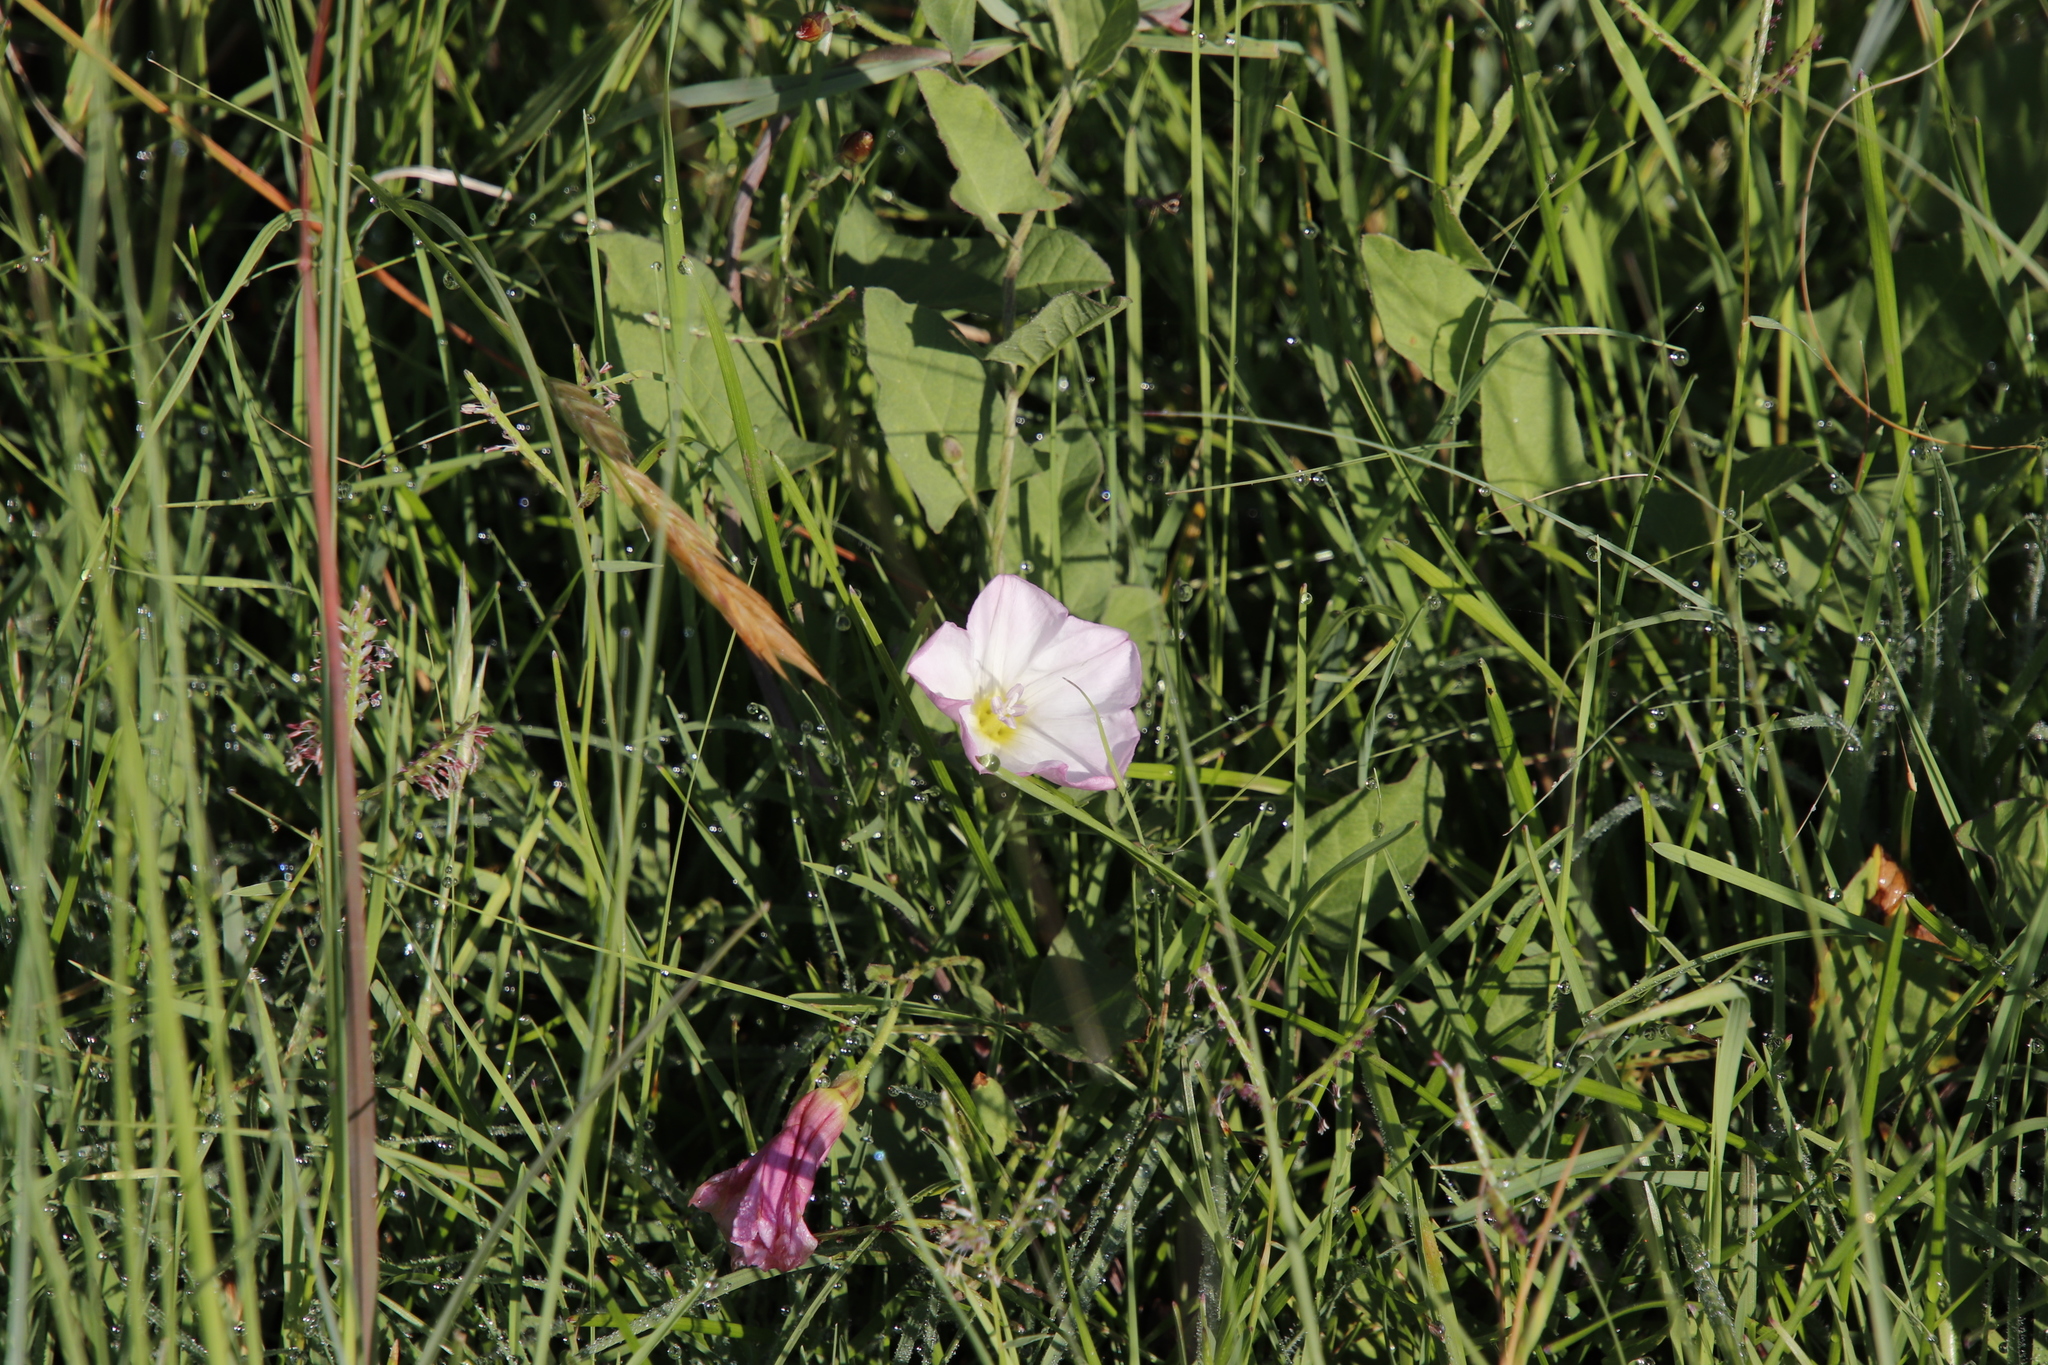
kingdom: Plantae
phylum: Tracheophyta
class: Magnoliopsida
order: Solanales
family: Convolvulaceae
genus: Convolvulus
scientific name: Convolvulus arvensis
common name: Field bindweed
